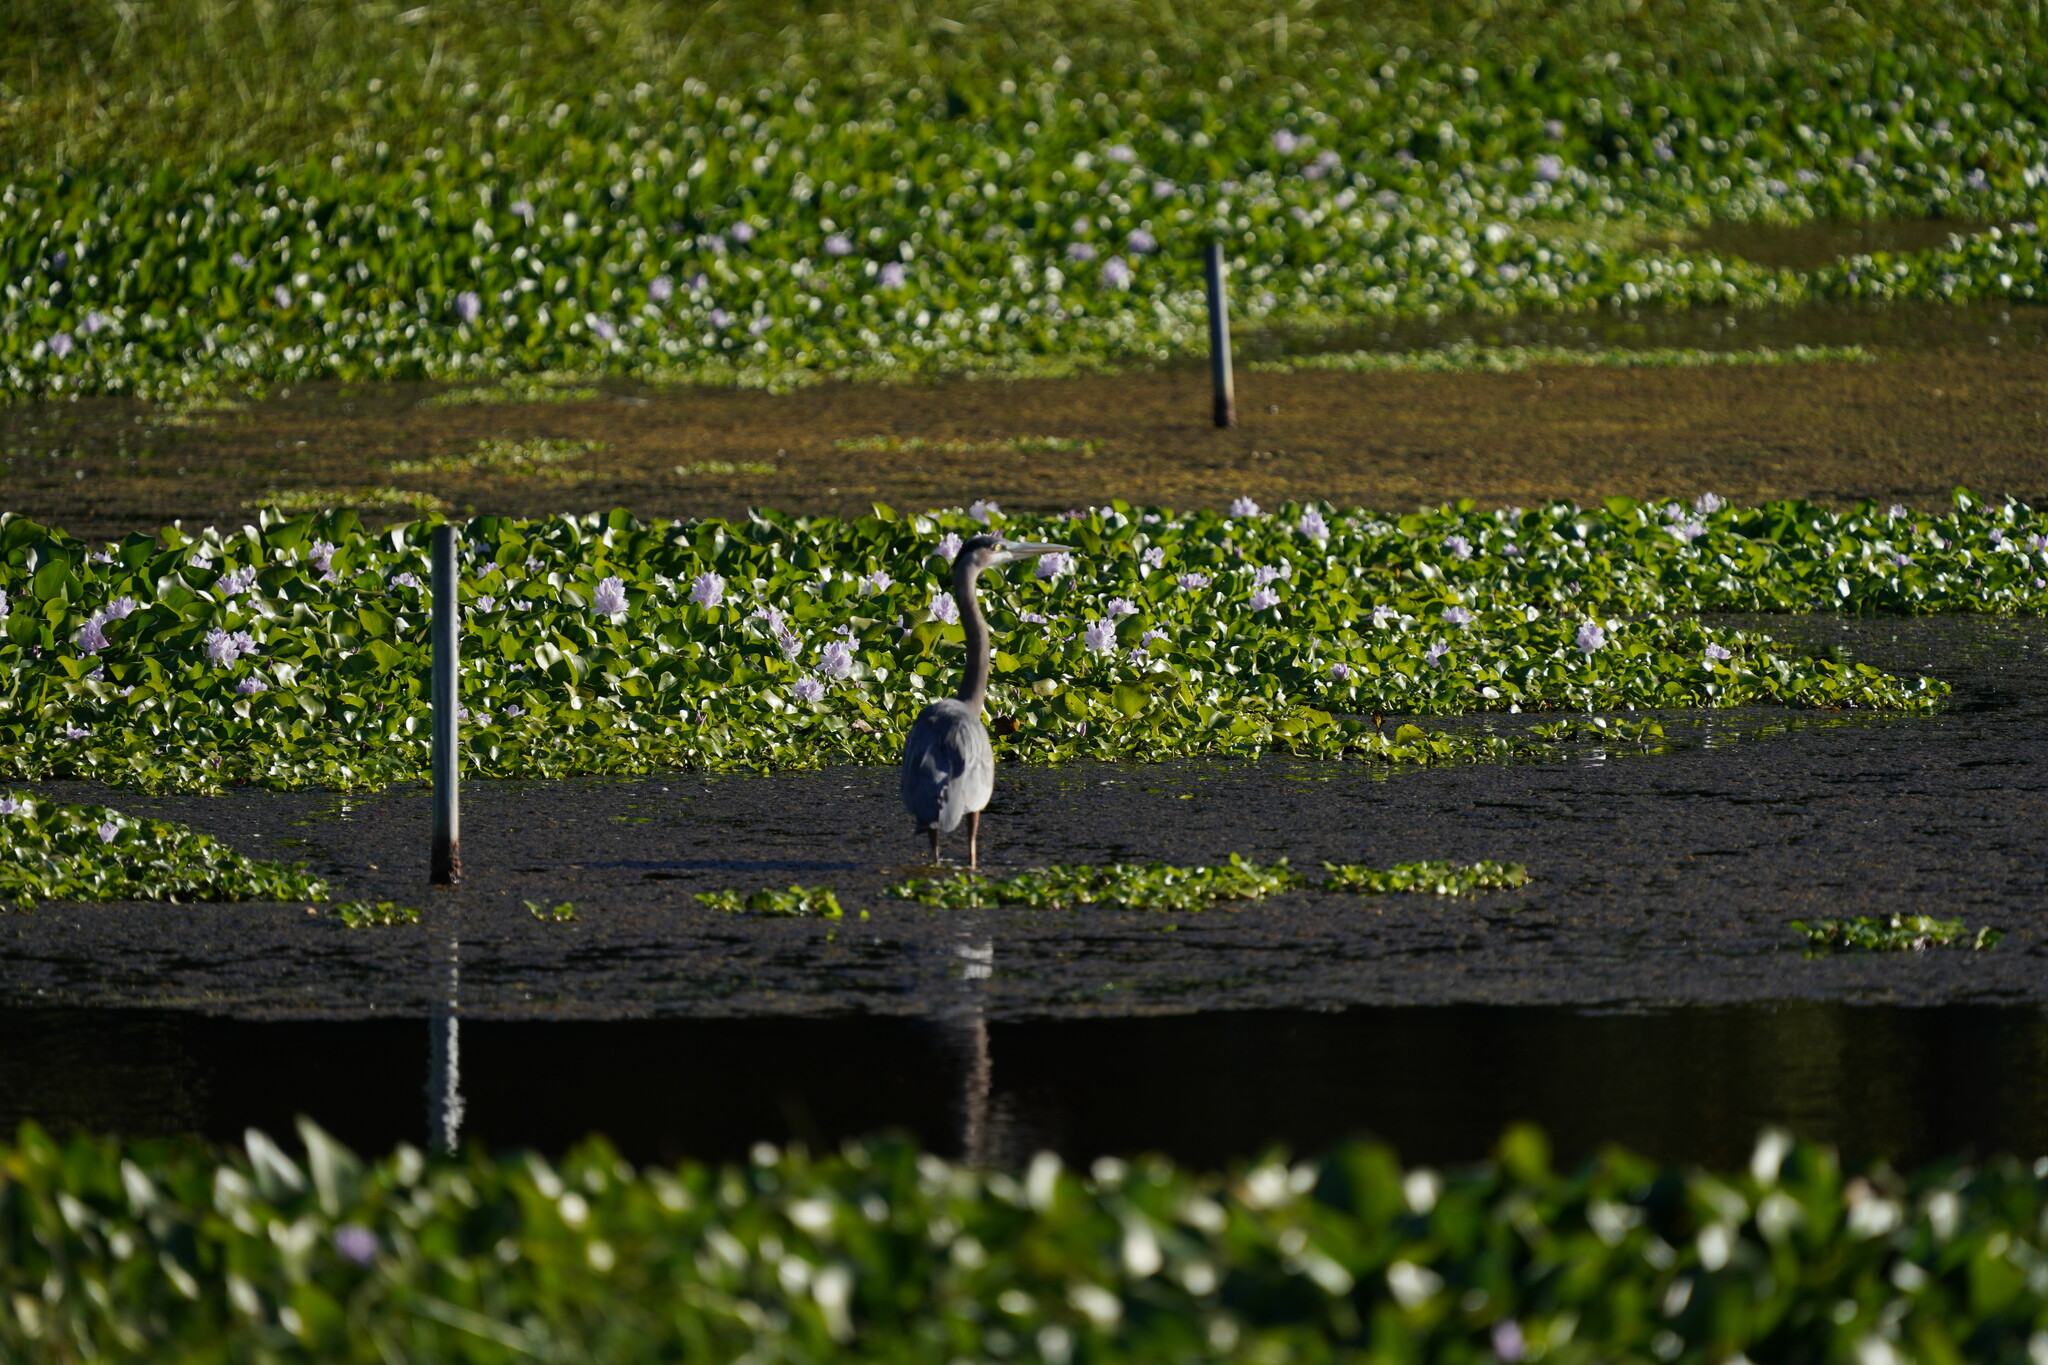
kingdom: Animalia
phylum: Chordata
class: Aves
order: Pelecaniformes
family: Ardeidae
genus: Ardea
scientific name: Ardea herodias
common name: Great blue heron
